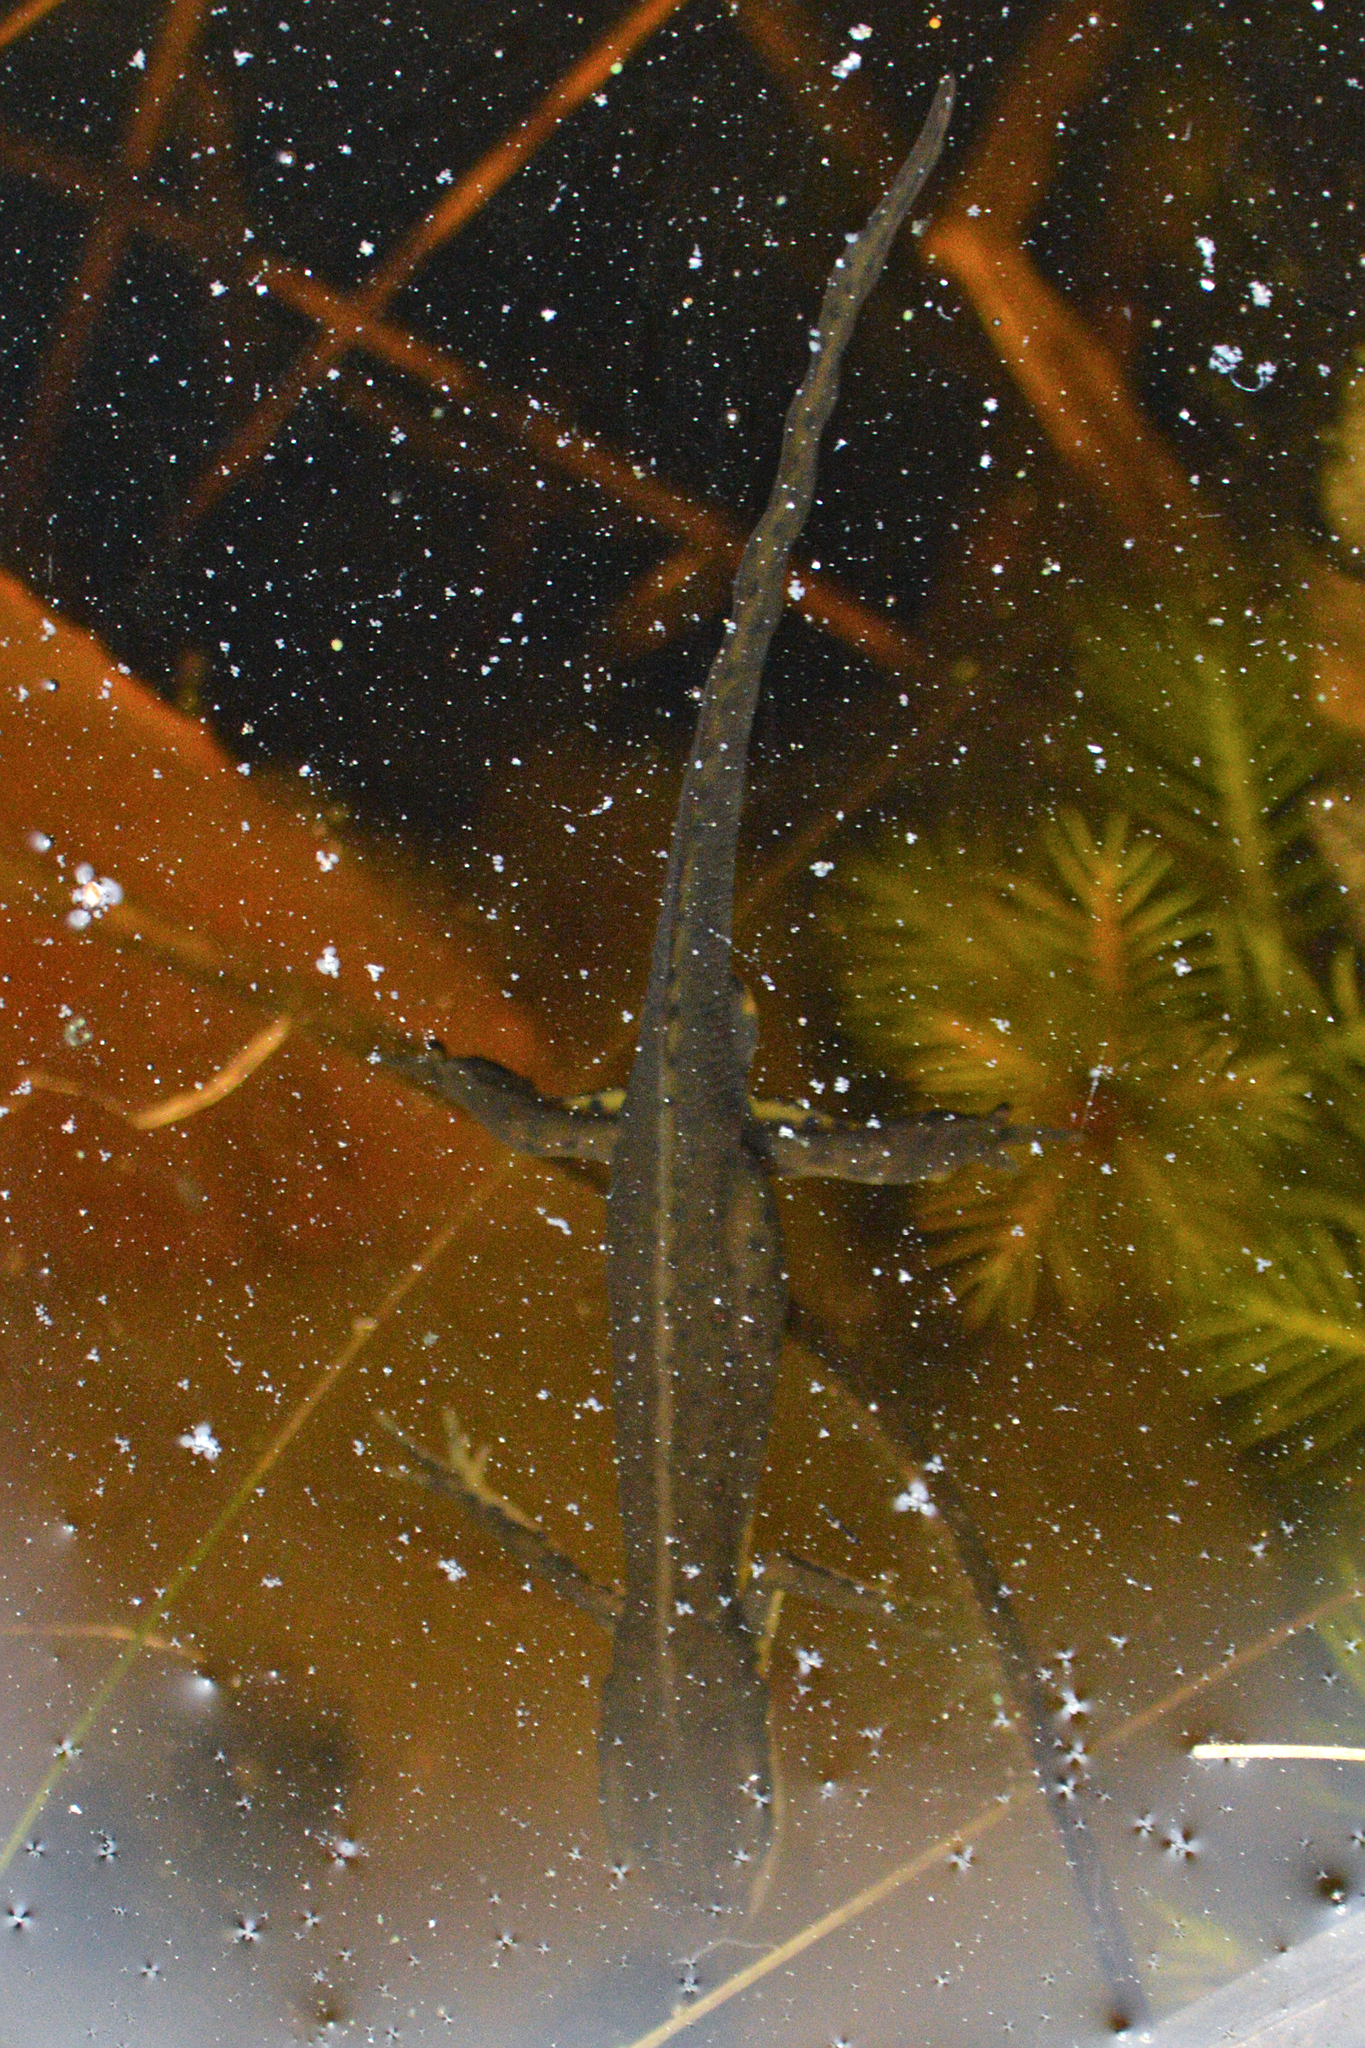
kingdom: Animalia
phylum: Chordata
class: Amphibia
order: Caudata
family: Salamandridae
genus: Notophthalmus
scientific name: Notophthalmus viridescens
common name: Eastern newt
